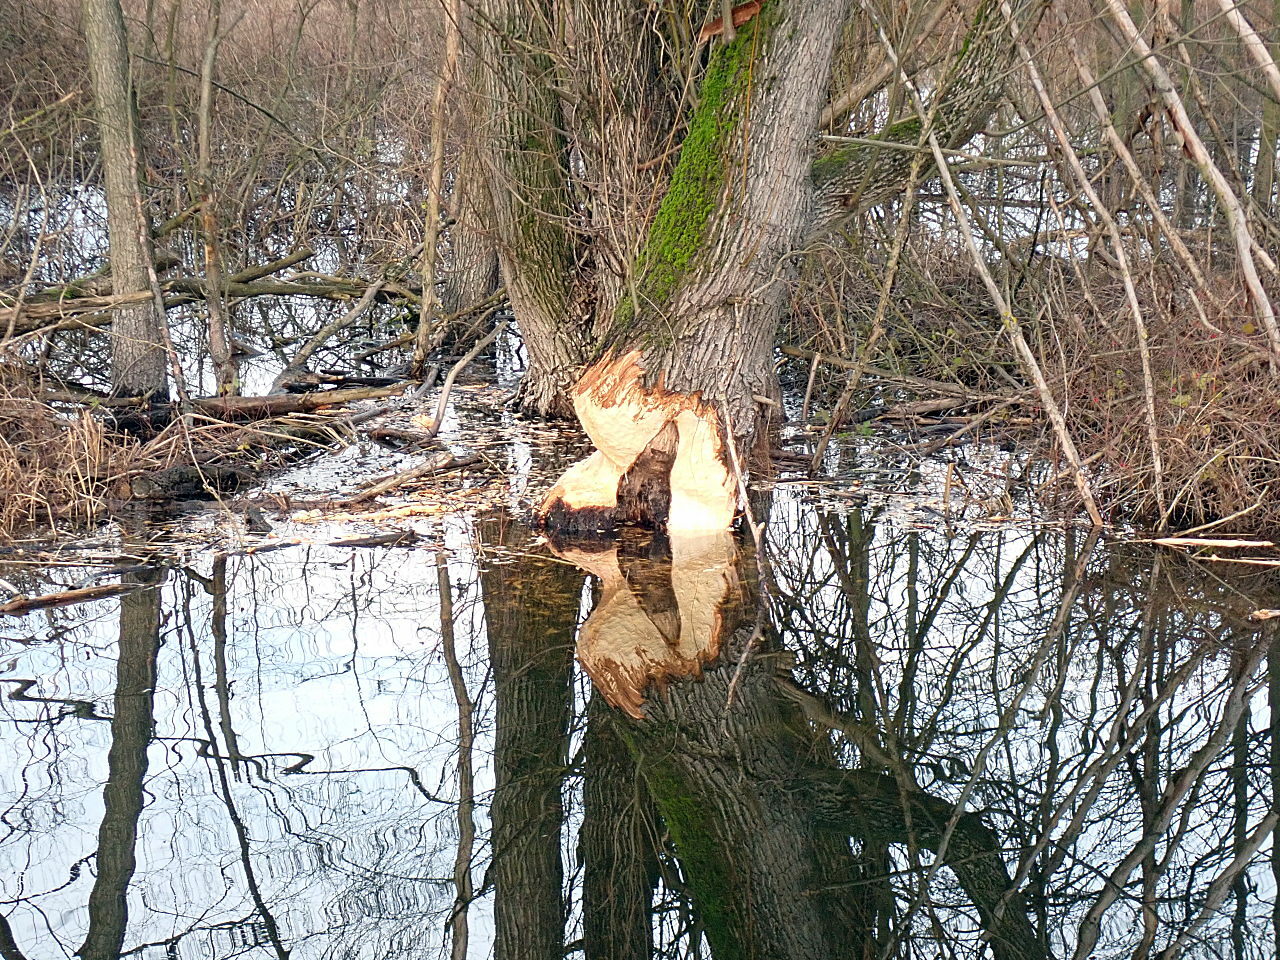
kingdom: Animalia
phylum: Chordata
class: Mammalia
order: Rodentia
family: Castoridae
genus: Castor
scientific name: Castor fiber
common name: Eurasian beaver
